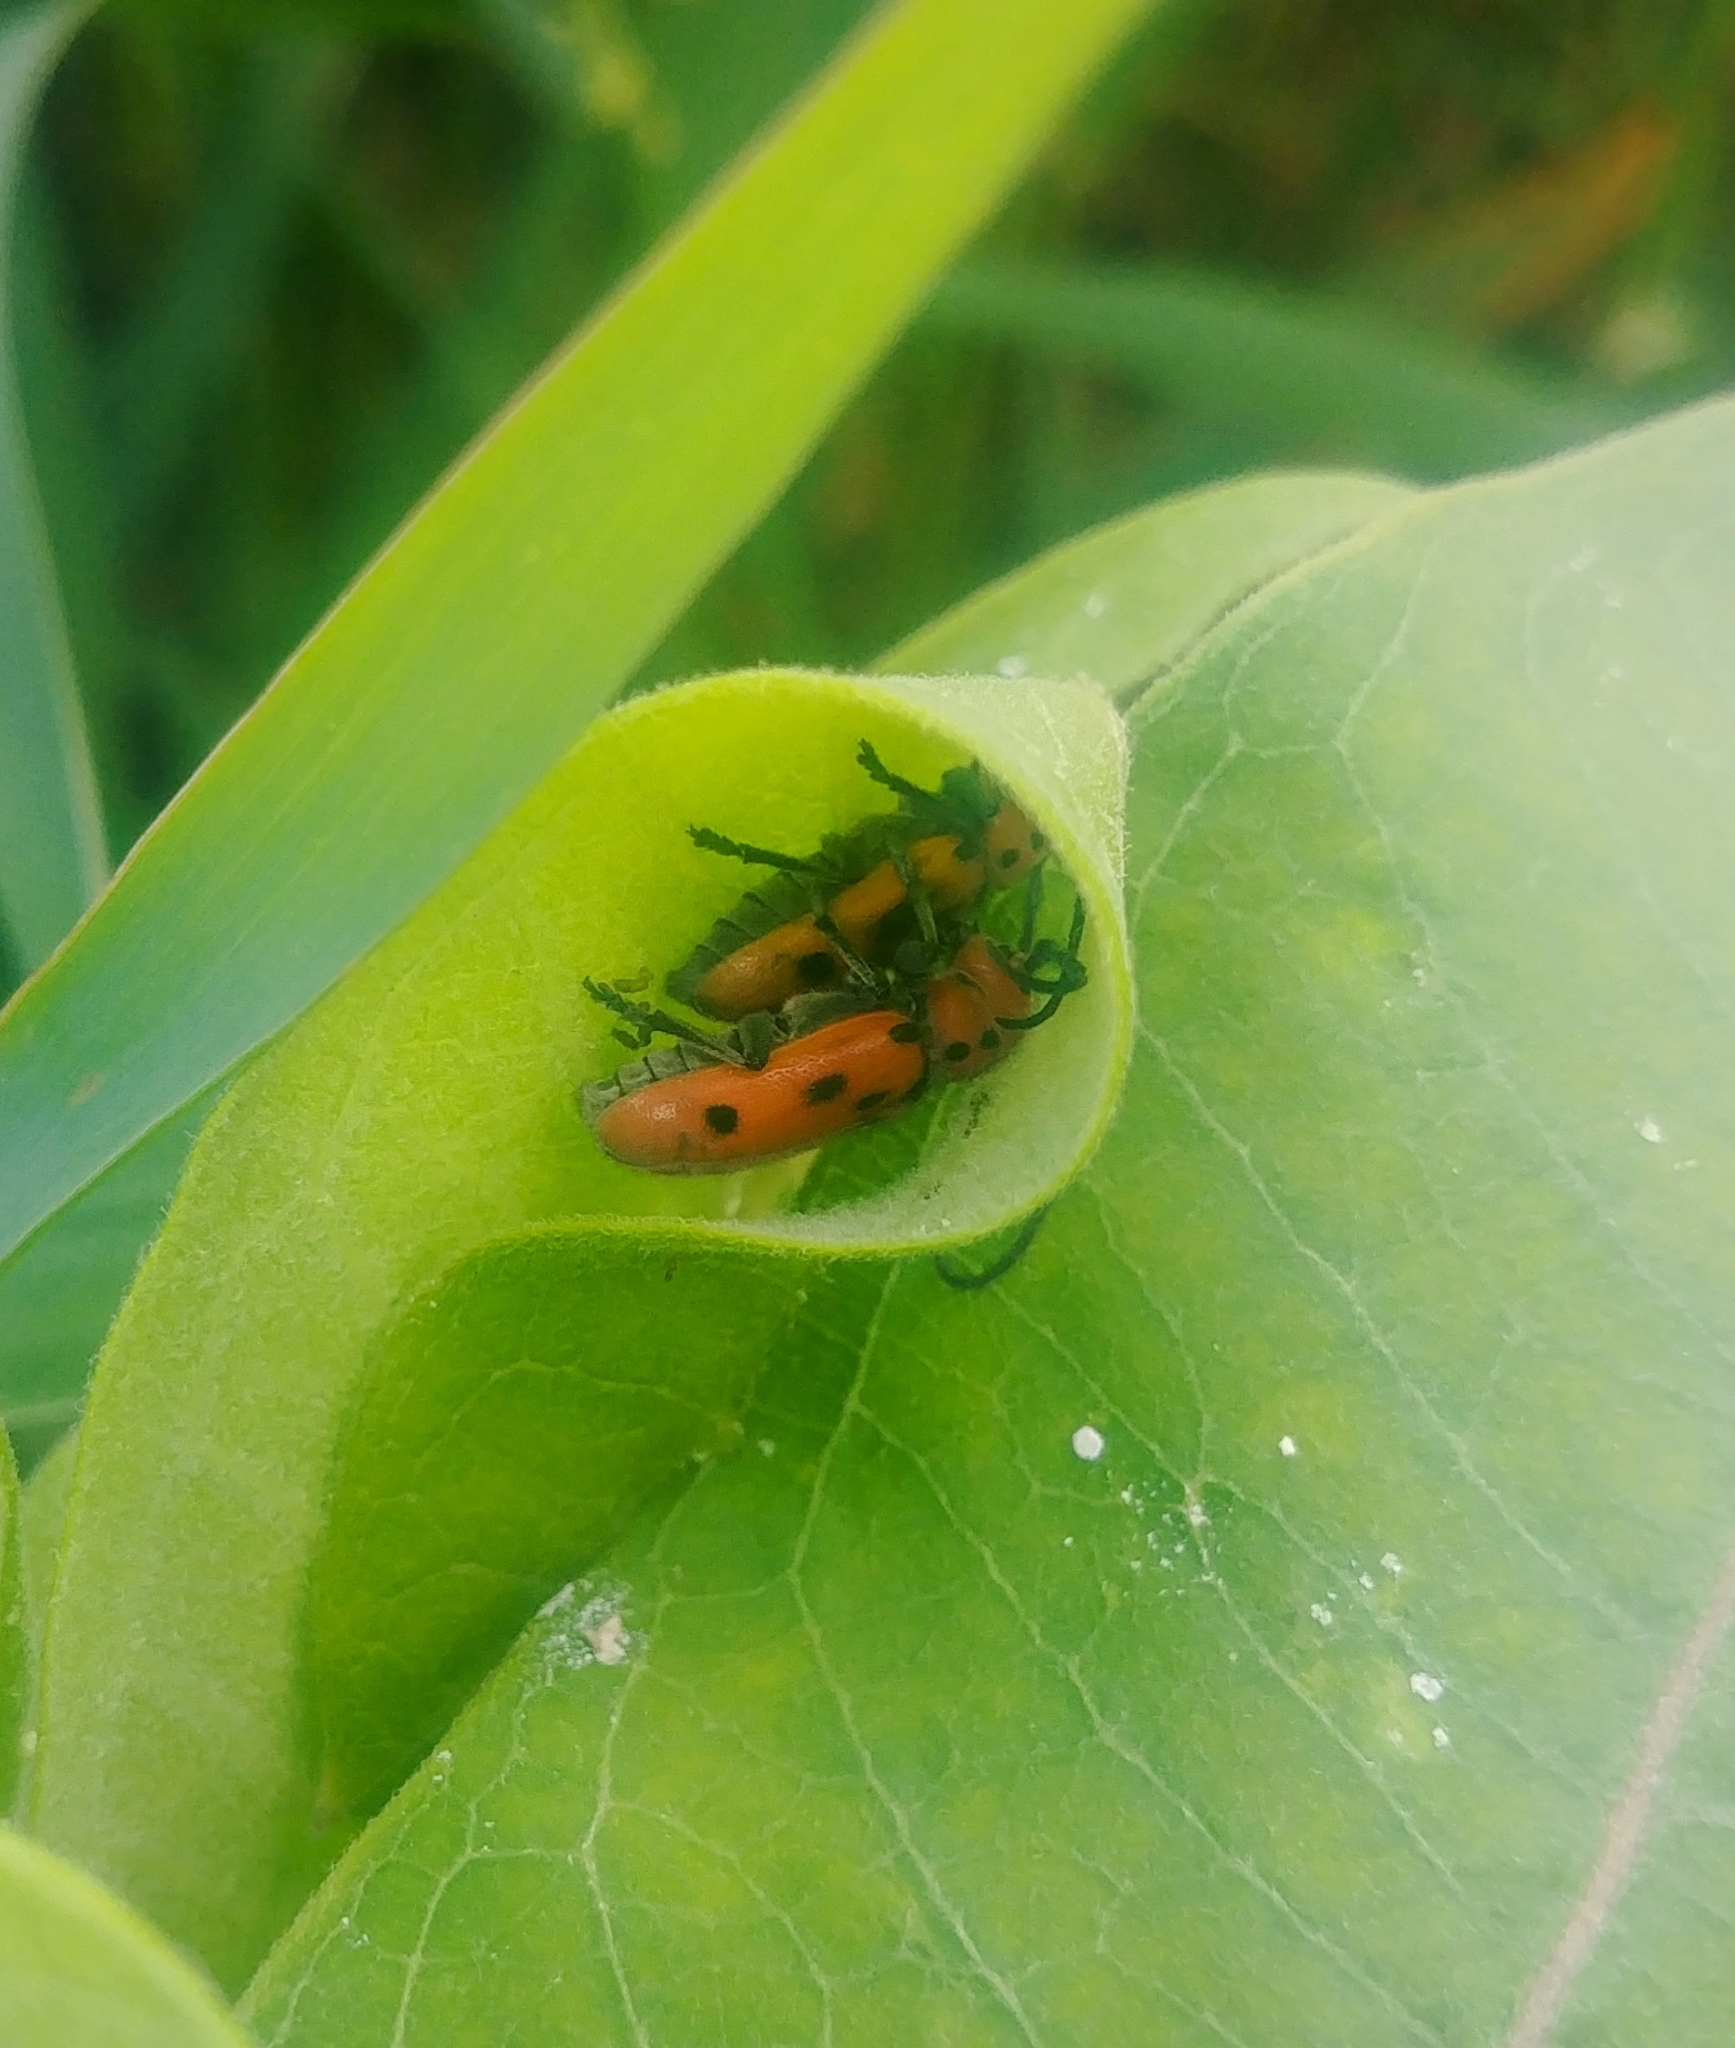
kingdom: Animalia
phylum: Arthropoda
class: Insecta
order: Coleoptera
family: Cerambycidae
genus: Tetraopes
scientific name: Tetraopes tetrophthalmus
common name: Red milkweed beetle
